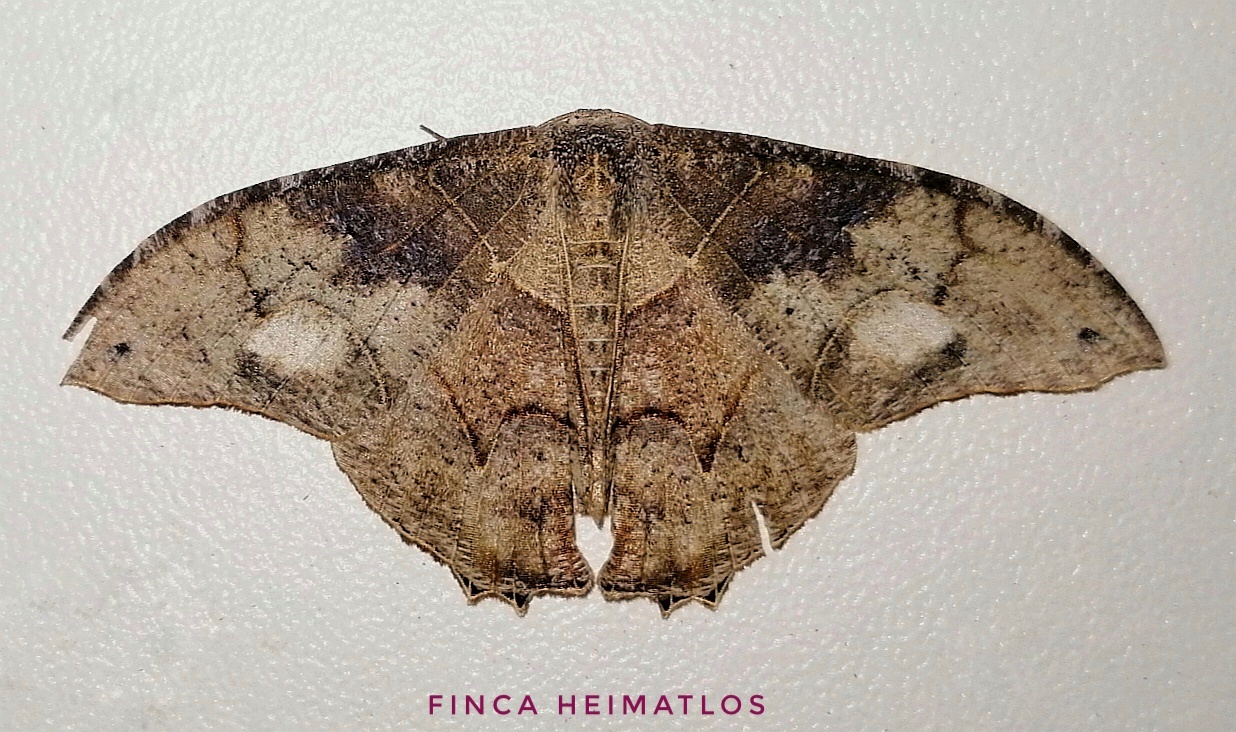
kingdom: Animalia
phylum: Arthropoda
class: Insecta
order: Lepidoptera
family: Uraniidae
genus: Syngria
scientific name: Syngria druidaria
